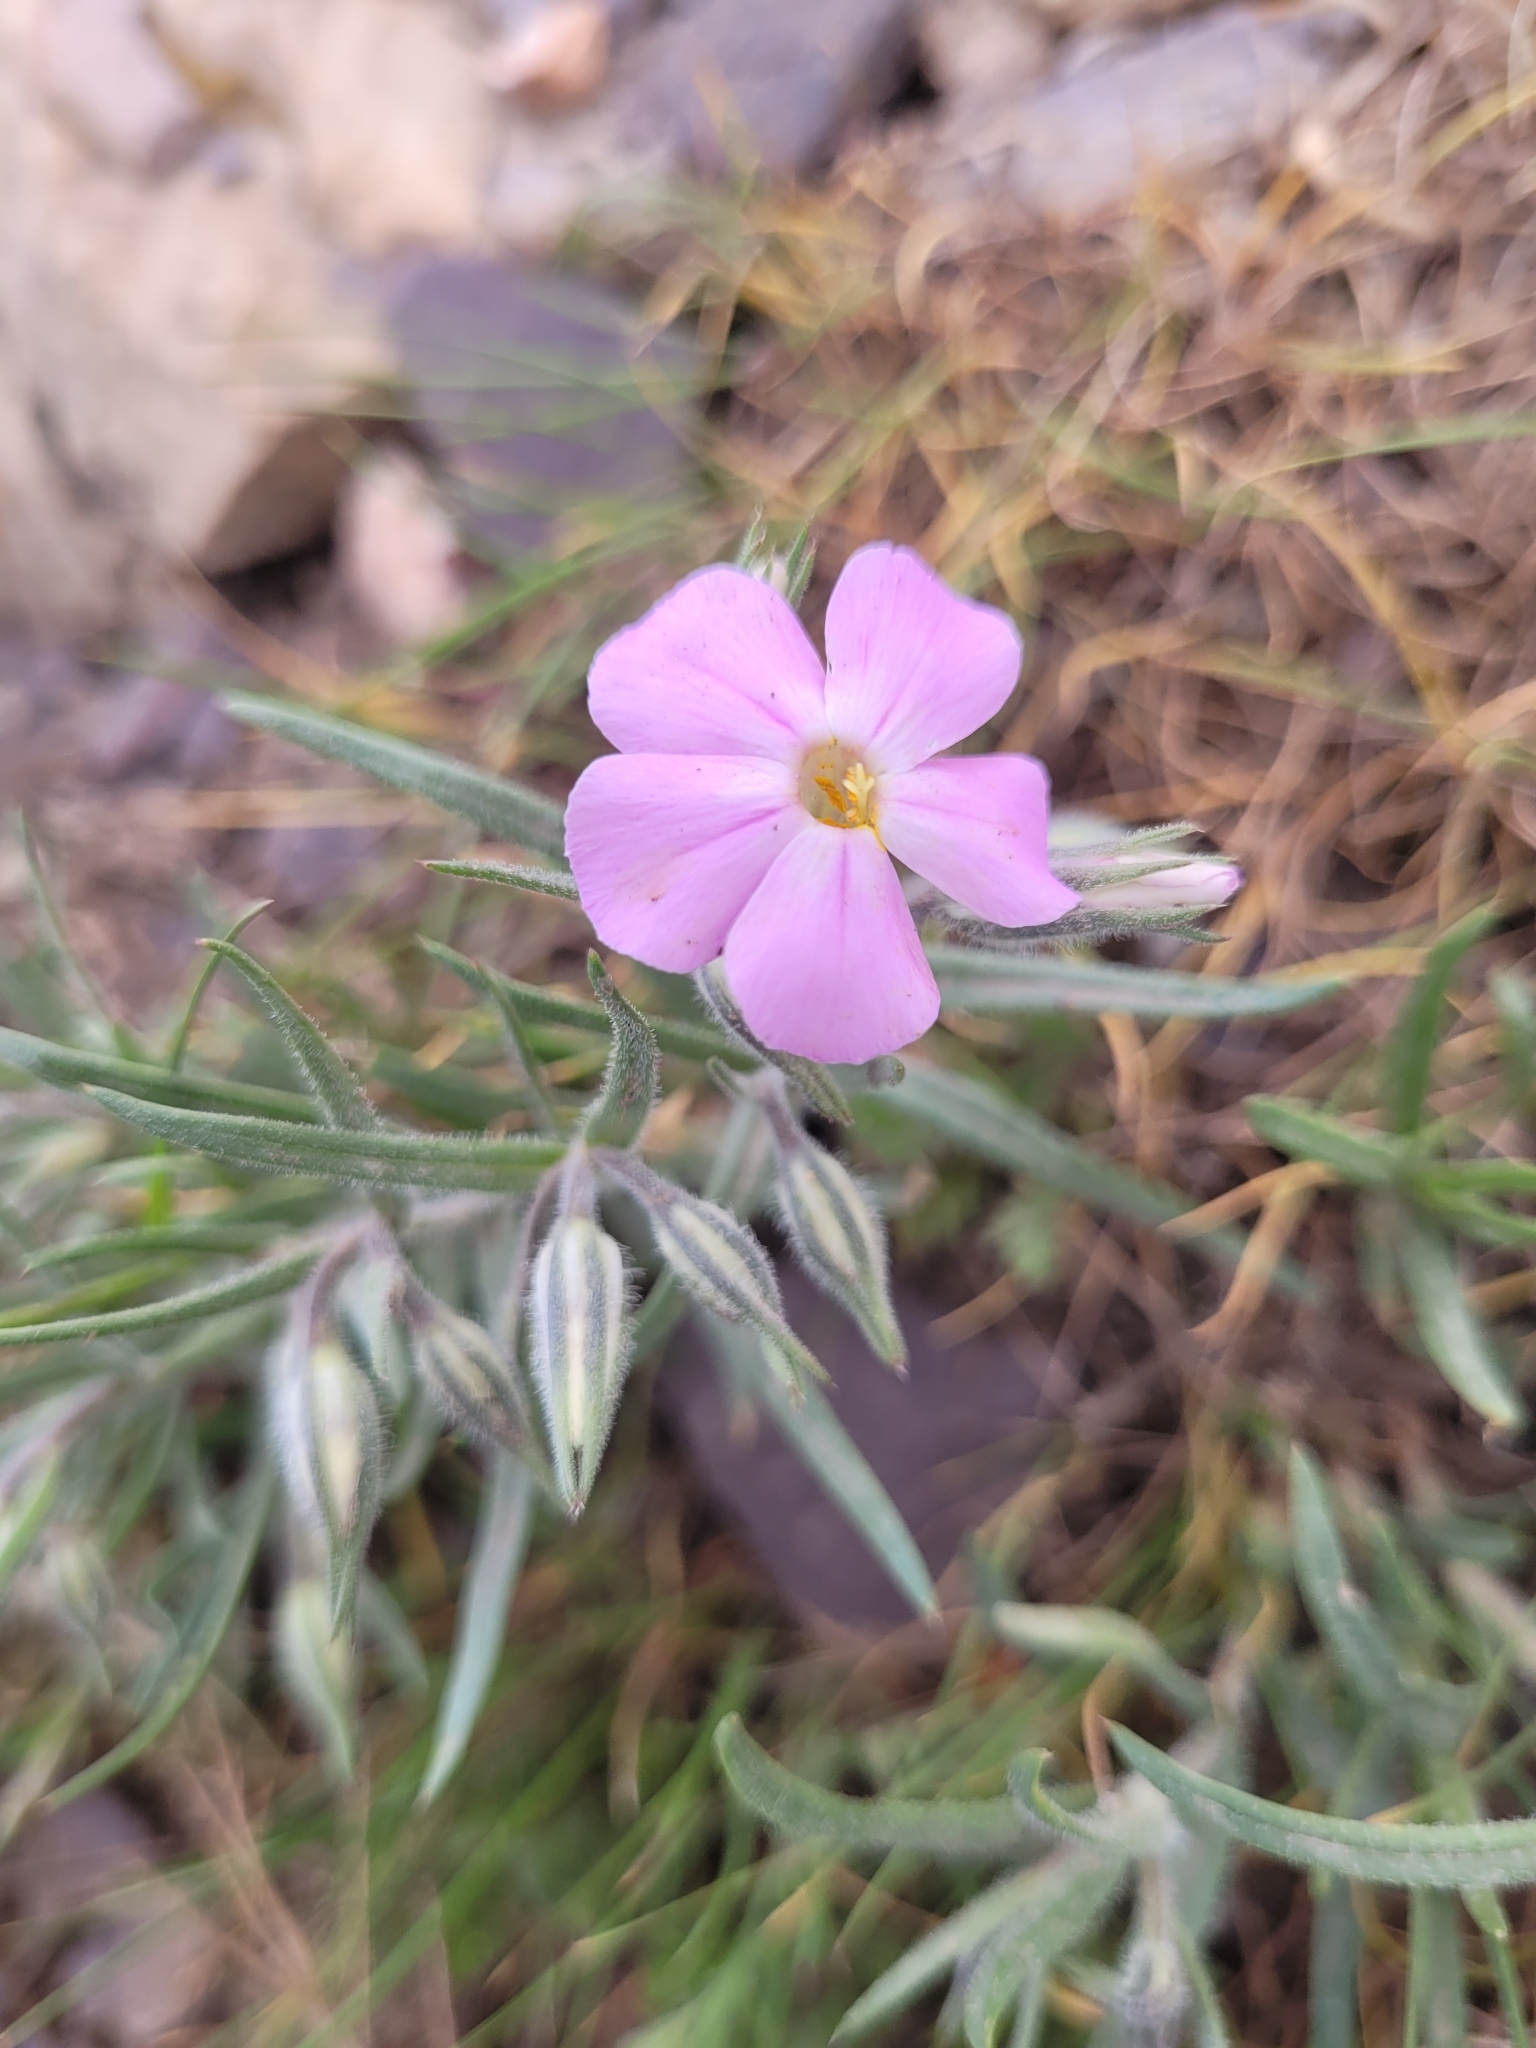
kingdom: Plantae
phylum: Tracheophyta
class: Magnoliopsida
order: Ericales
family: Polemoniaceae
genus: Phlox
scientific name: Phlox longifolia
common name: Longleaf phlox
